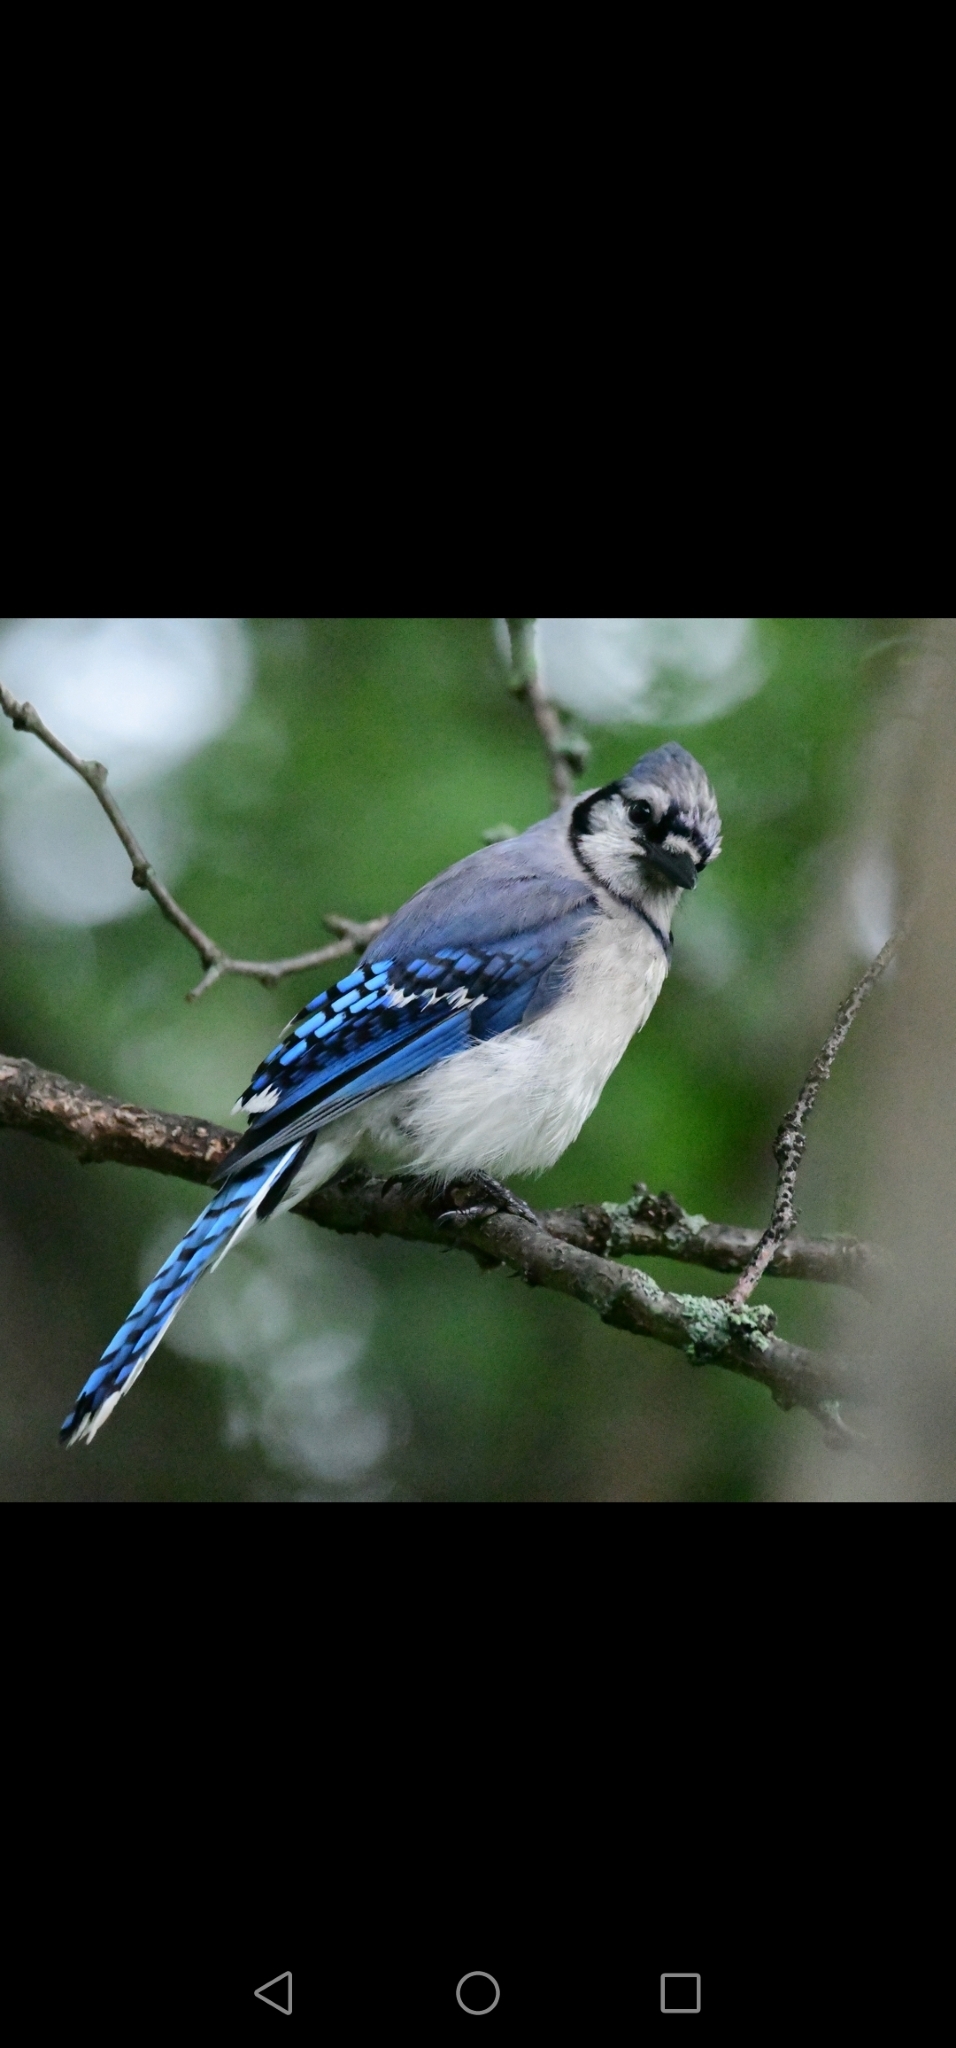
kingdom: Animalia
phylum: Chordata
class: Aves
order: Passeriformes
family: Corvidae
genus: Cyanocitta
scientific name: Cyanocitta cristata
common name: Blue jay
